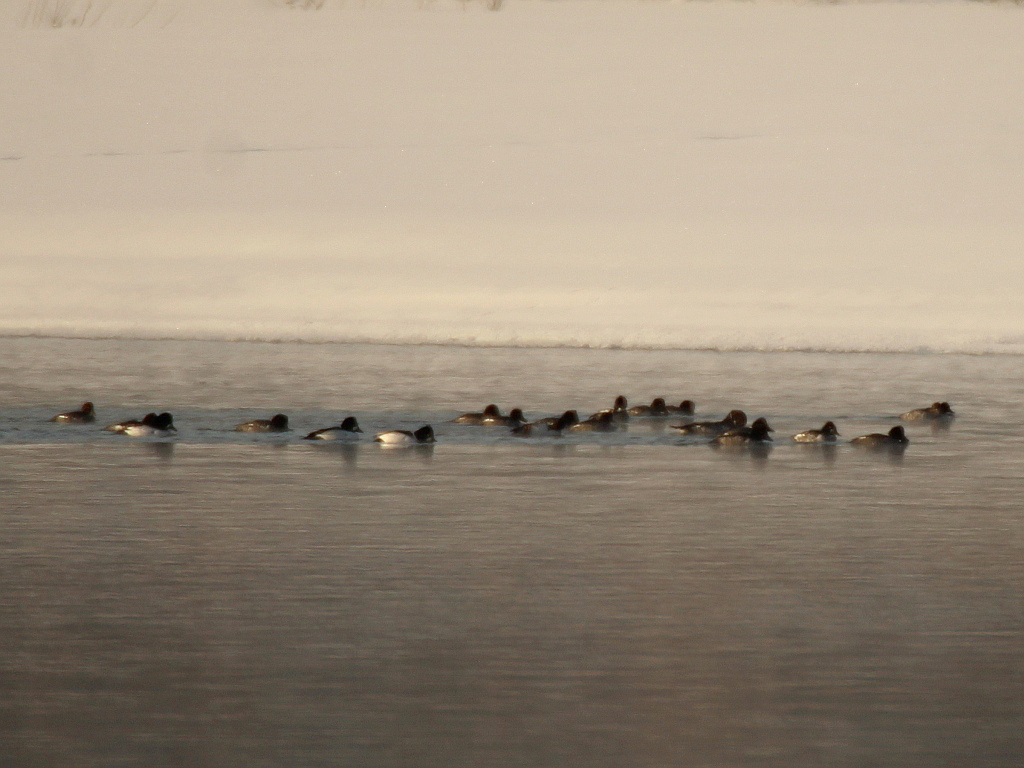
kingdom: Animalia
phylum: Chordata
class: Aves
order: Anseriformes
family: Anatidae
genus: Bucephala
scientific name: Bucephala clangula
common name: Common goldeneye
